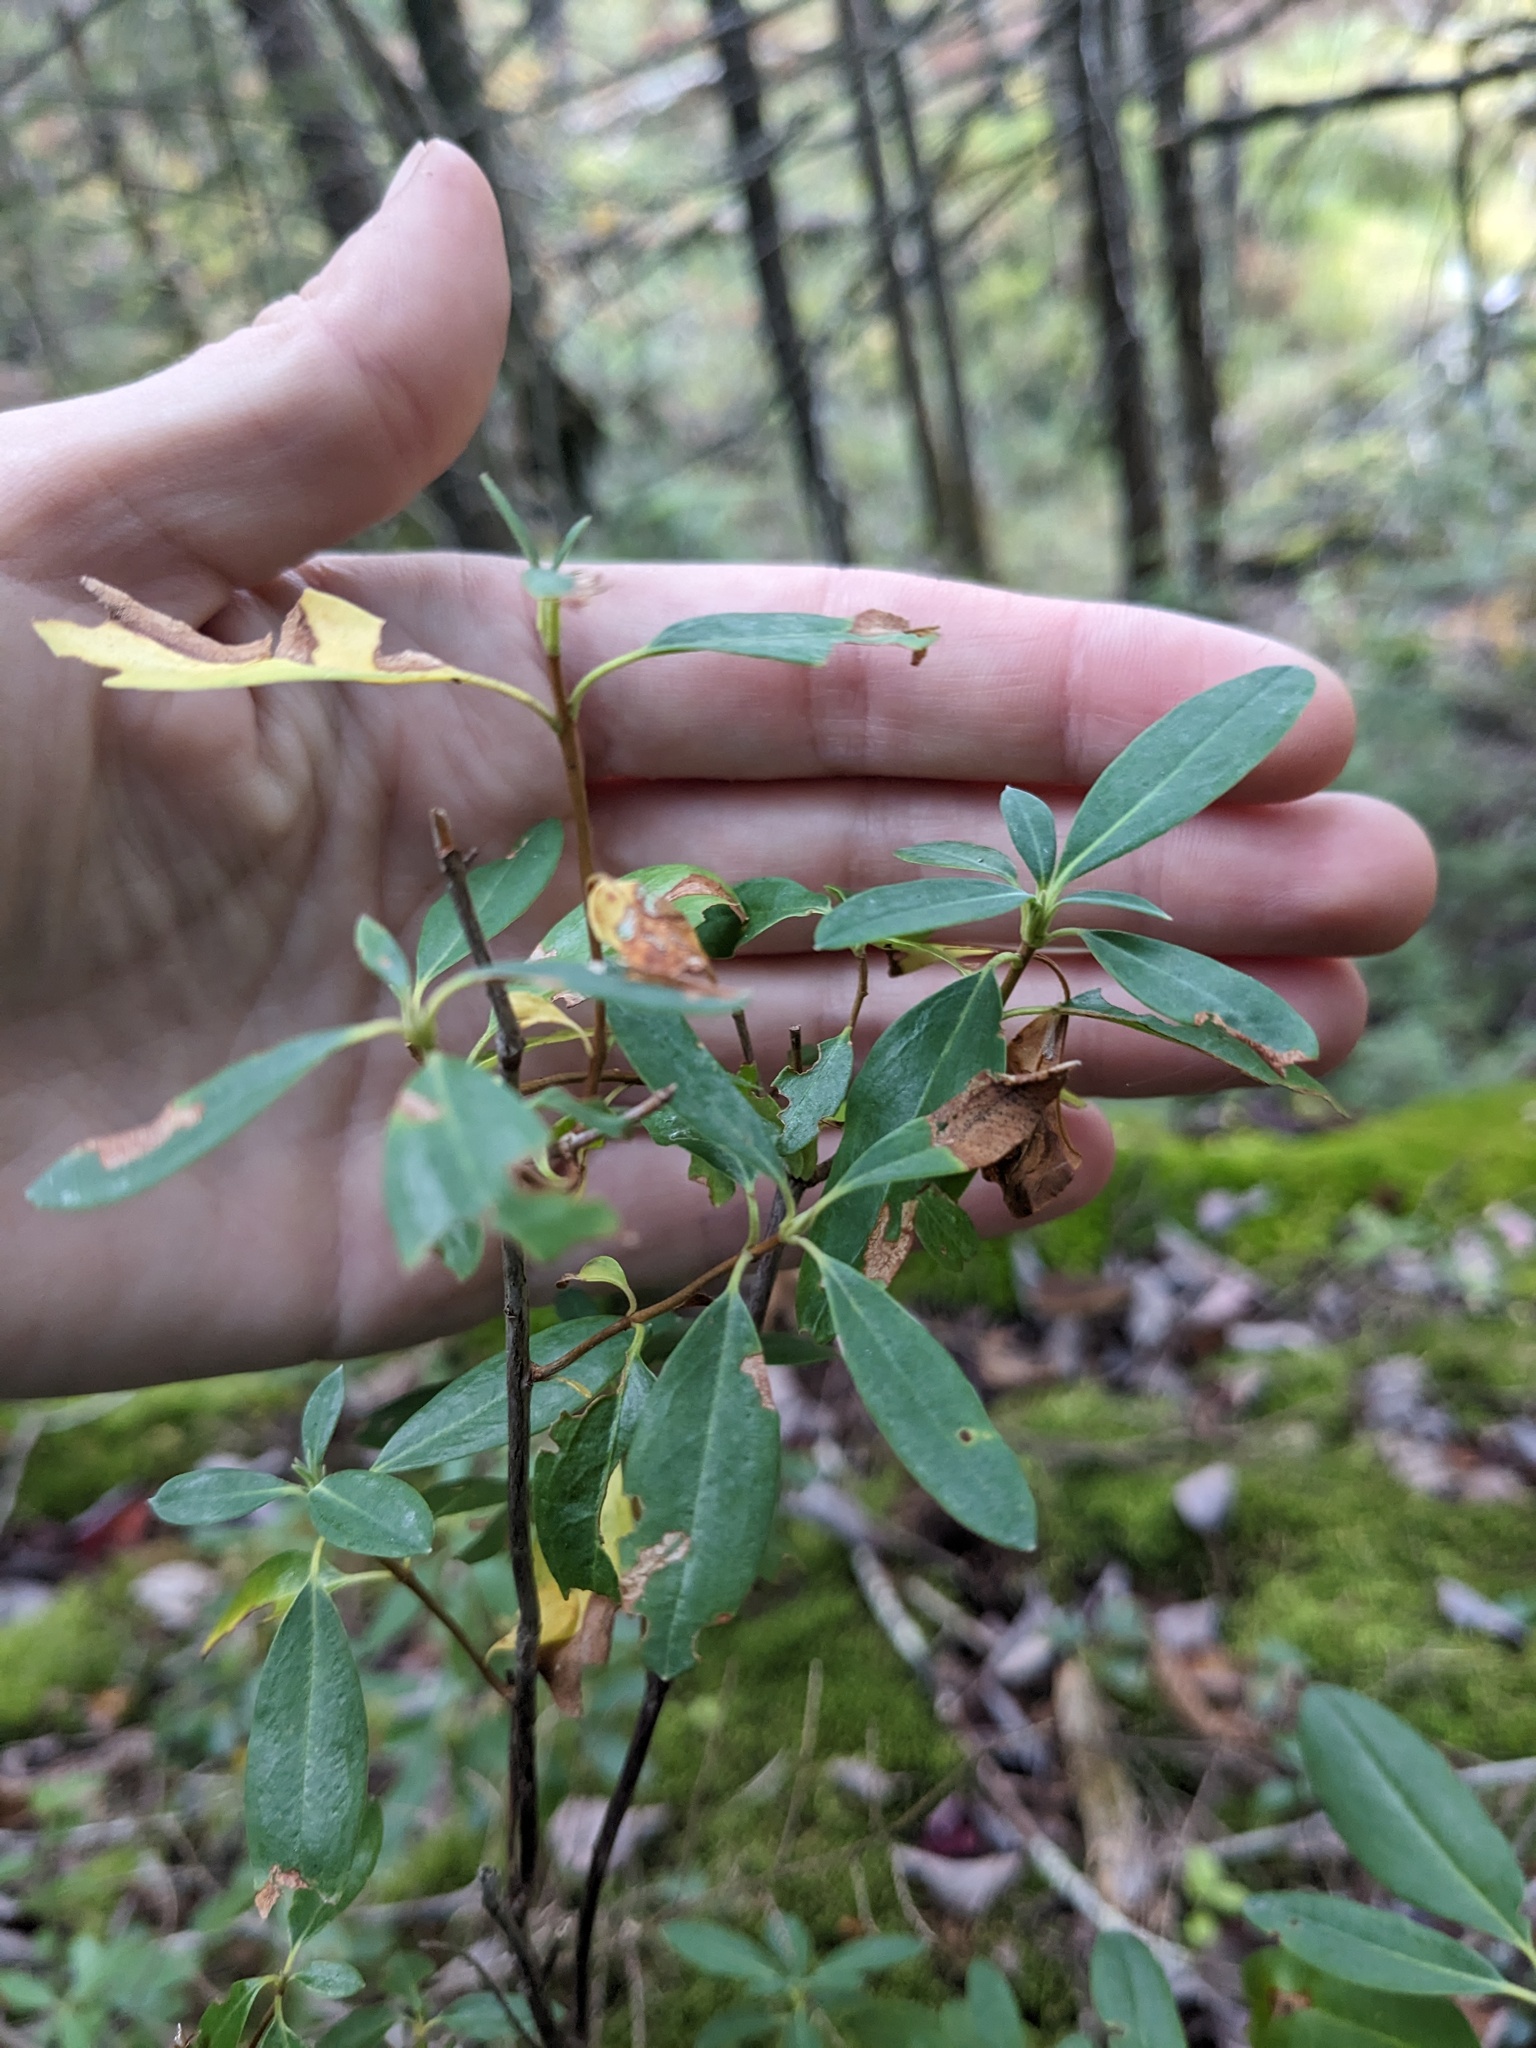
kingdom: Plantae
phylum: Tracheophyta
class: Magnoliopsida
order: Ericales
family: Ericaceae
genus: Kalmia
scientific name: Kalmia angustifolia
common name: Sheep-laurel
